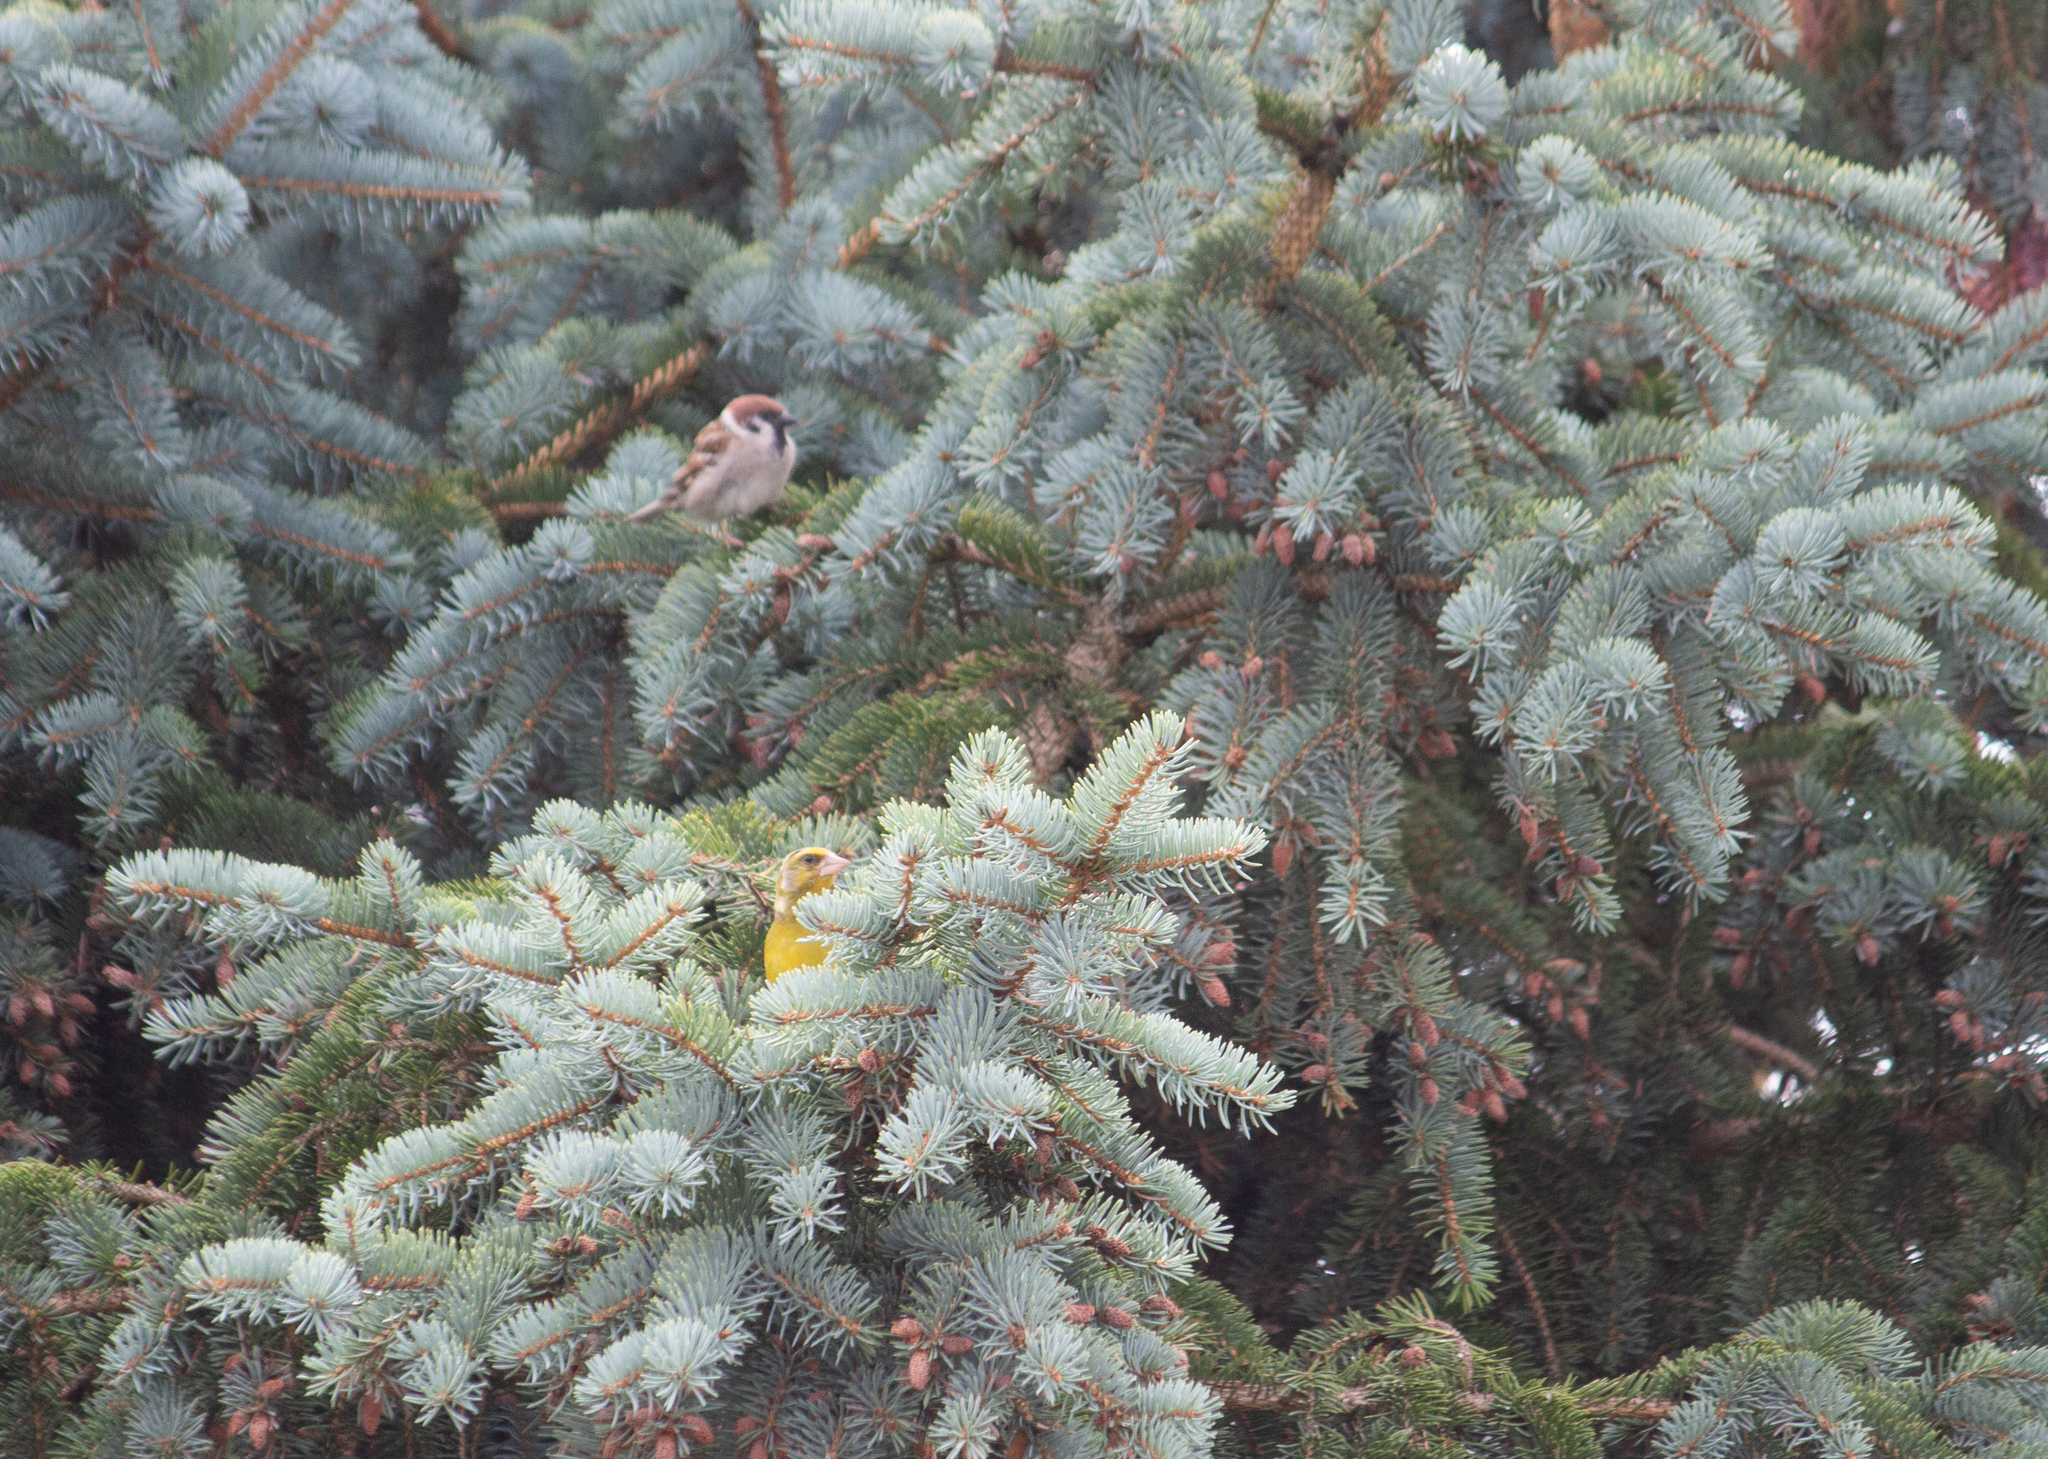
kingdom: Plantae
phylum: Tracheophyta
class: Liliopsida
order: Poales
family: Poaceae
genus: Chloris
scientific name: Chloris chloris
